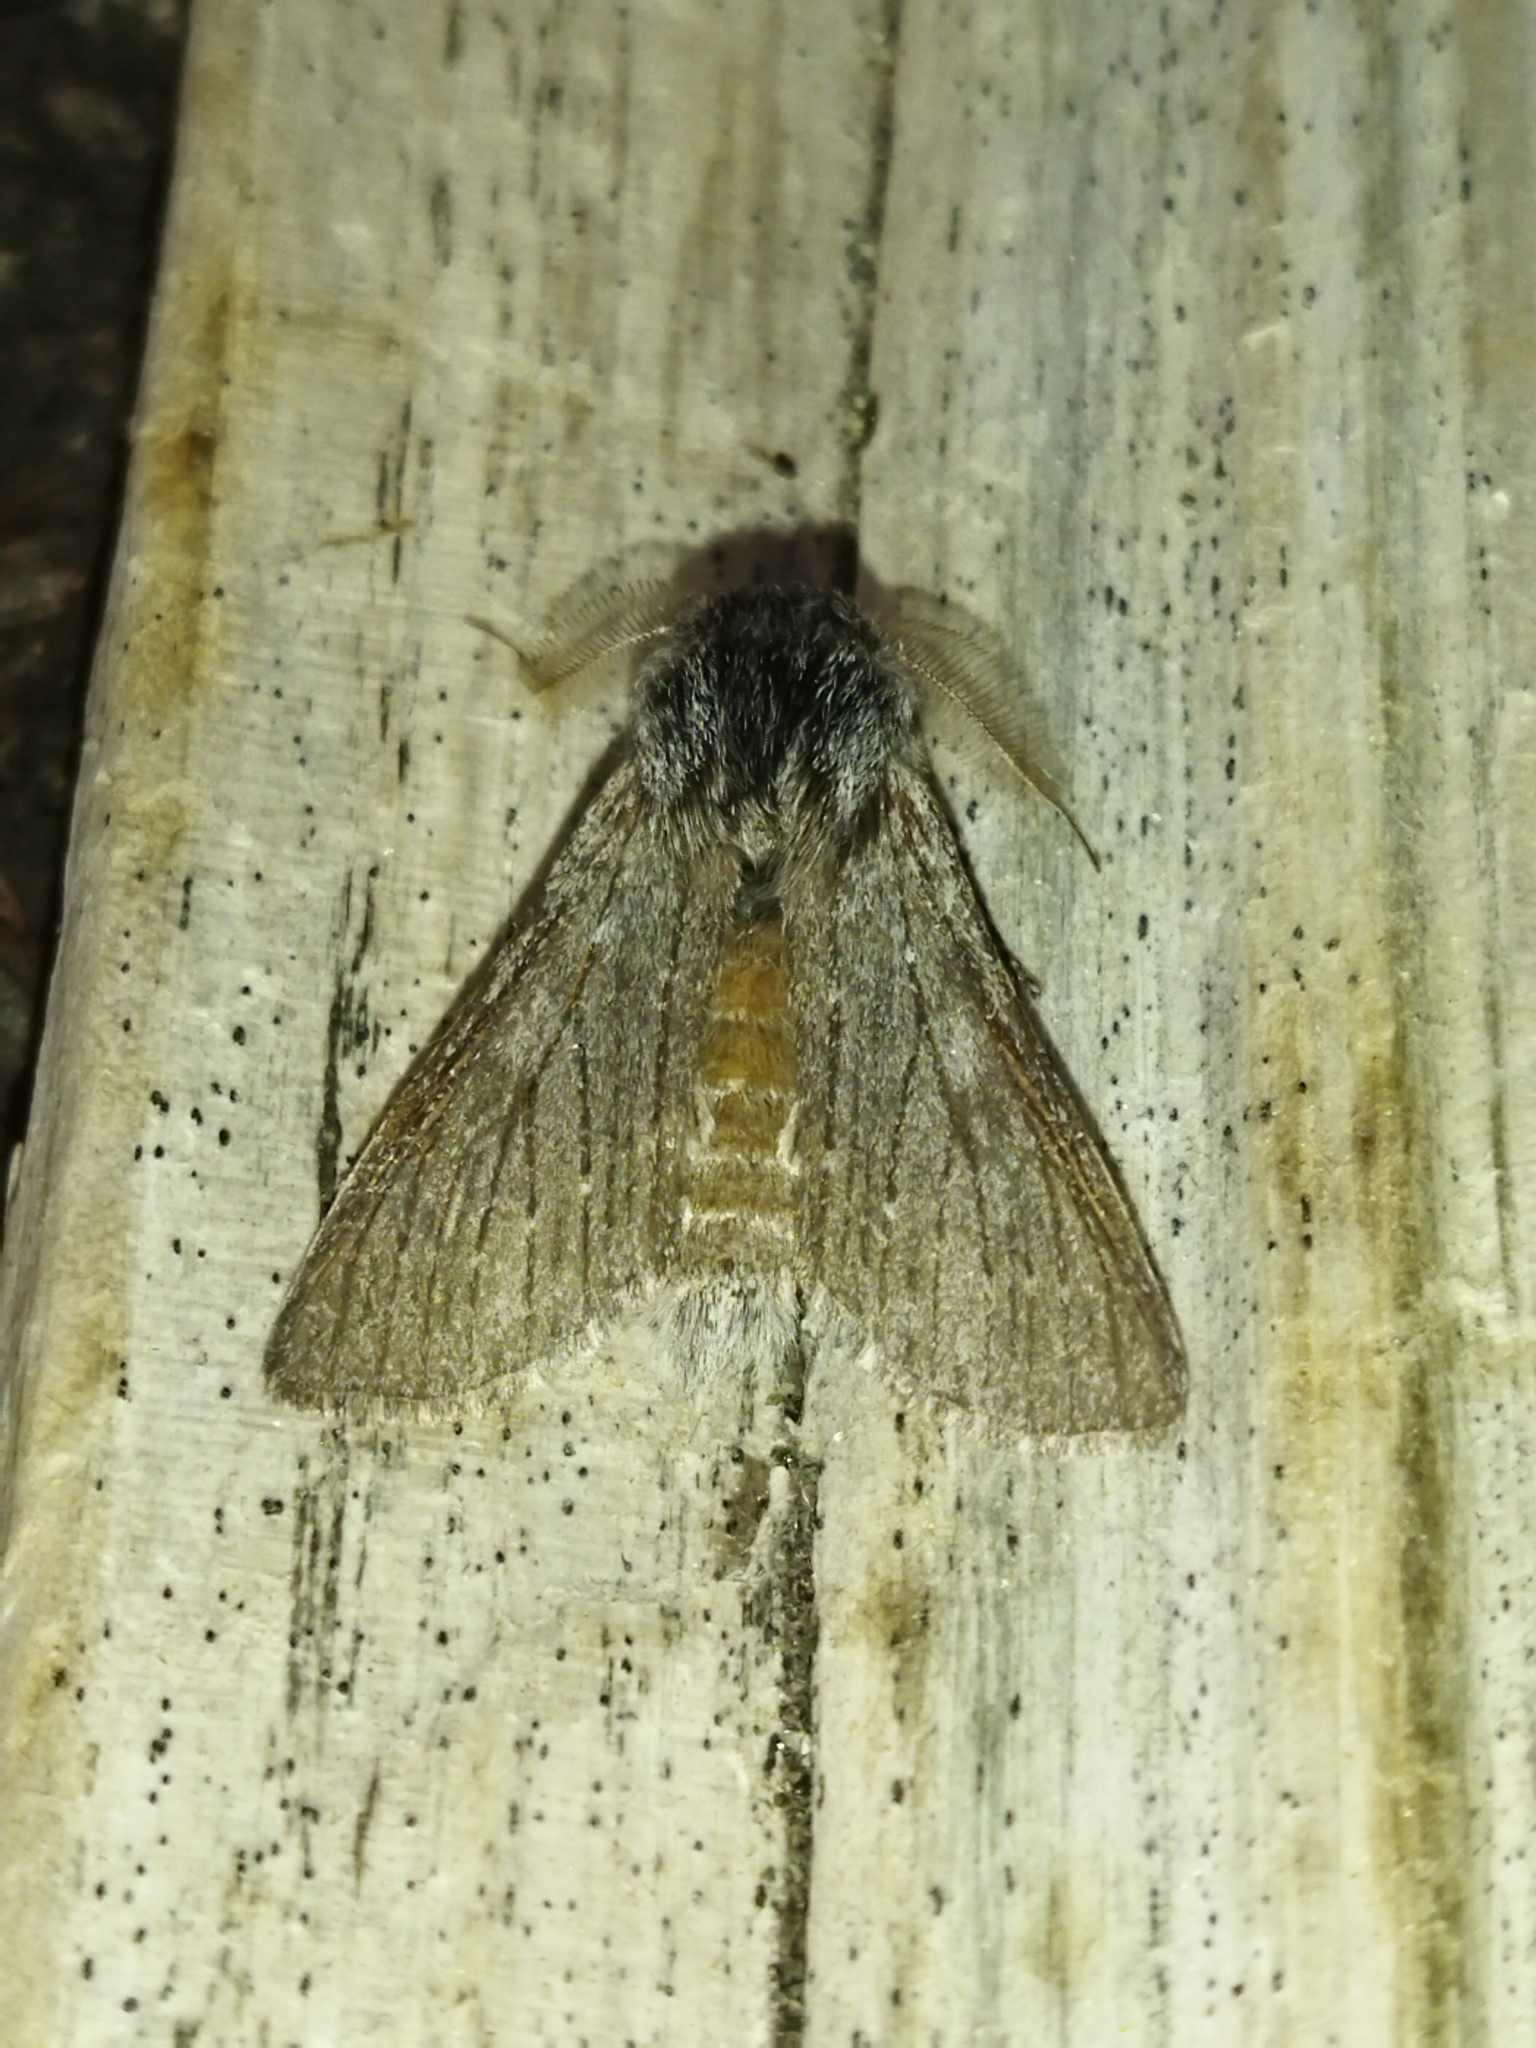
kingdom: Animalia
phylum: Arthropoda
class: Insecta
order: Lepidoptera
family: Notodontidae
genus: Dicranura
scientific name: Dicranura ulmi
